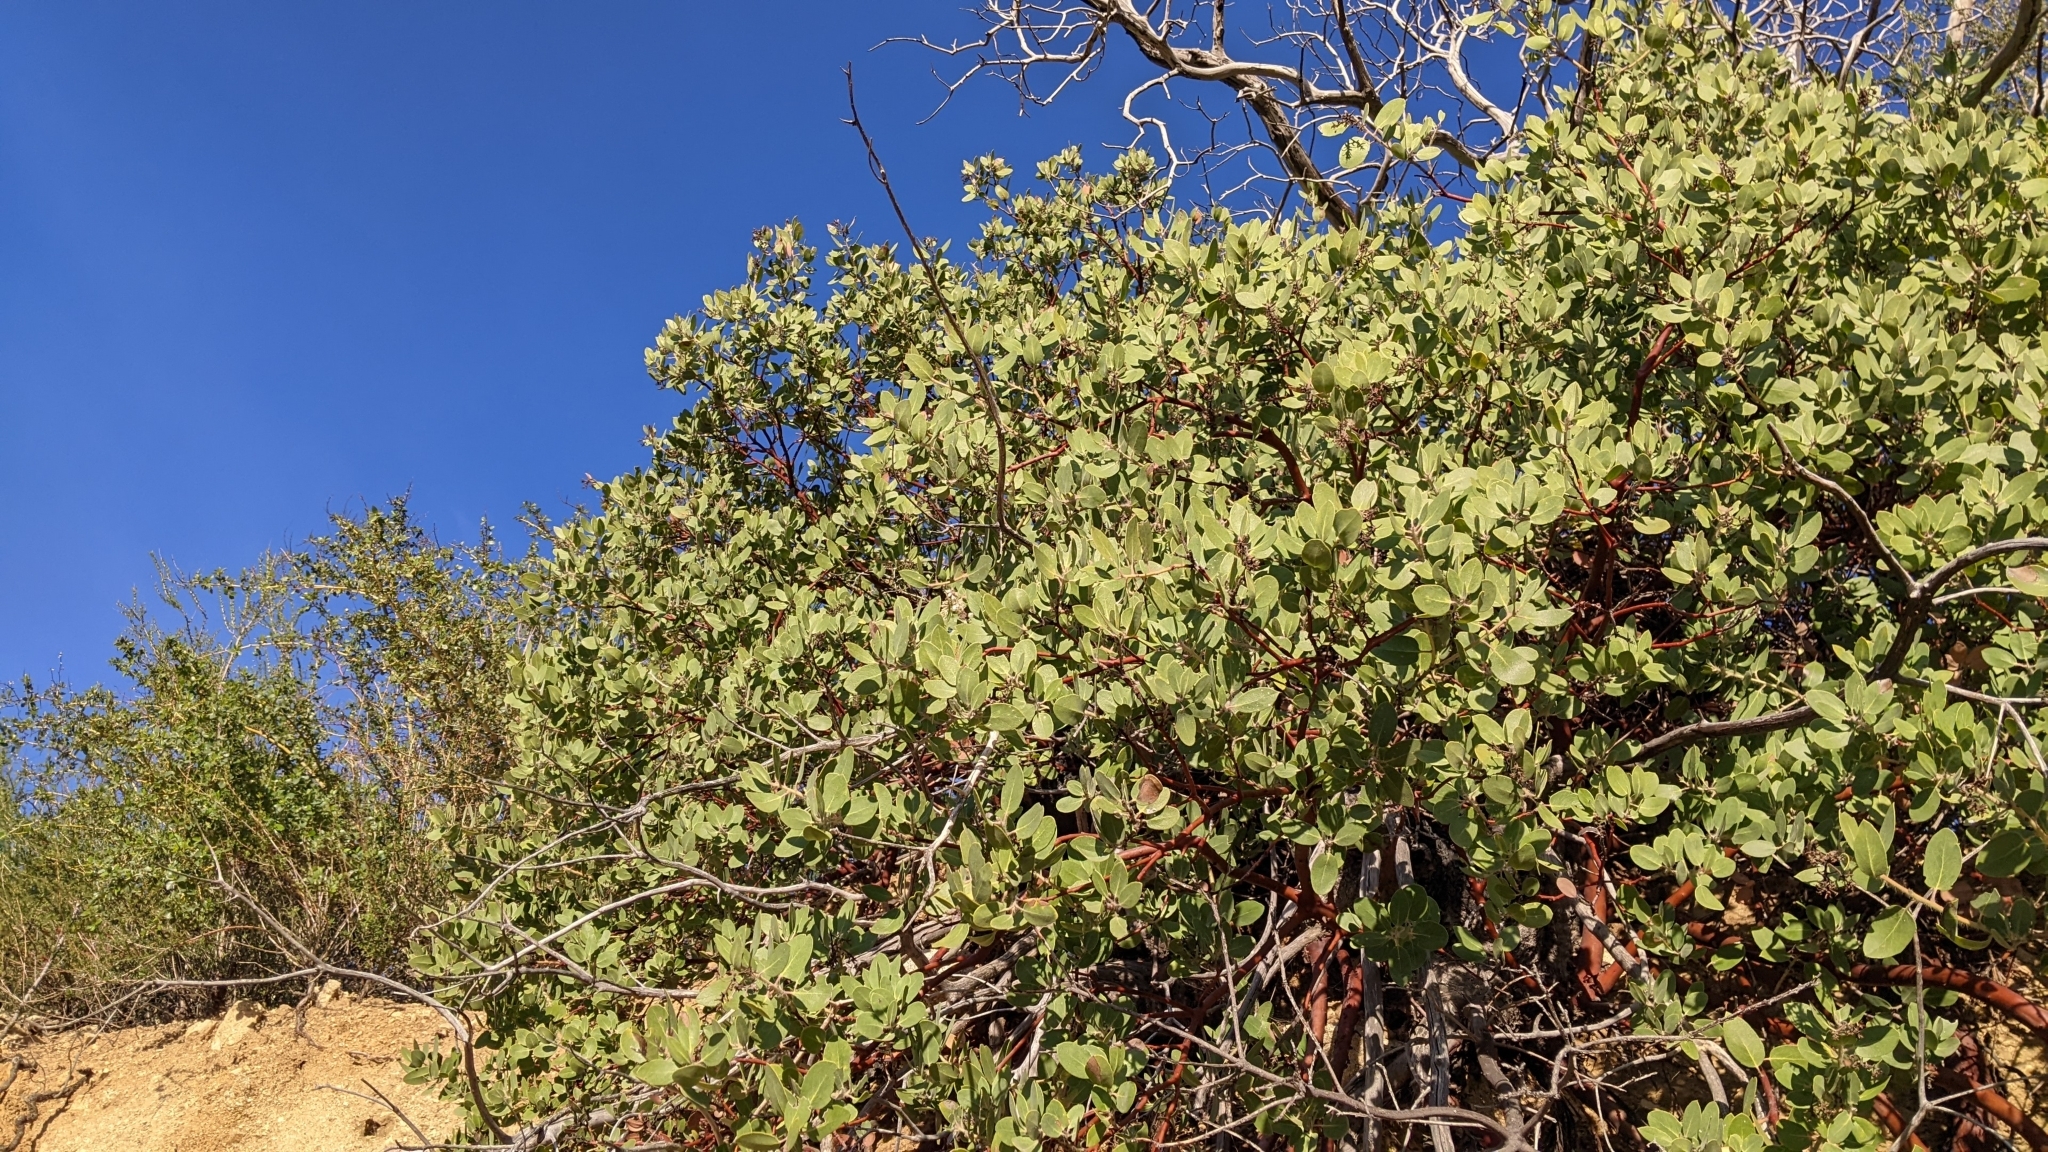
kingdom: Plantae
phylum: Tracheophyta
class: Magnoliopsida
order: Ericales
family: Ericaceae
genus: Arctostaphylos
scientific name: Arctostaphylos glandulosa
